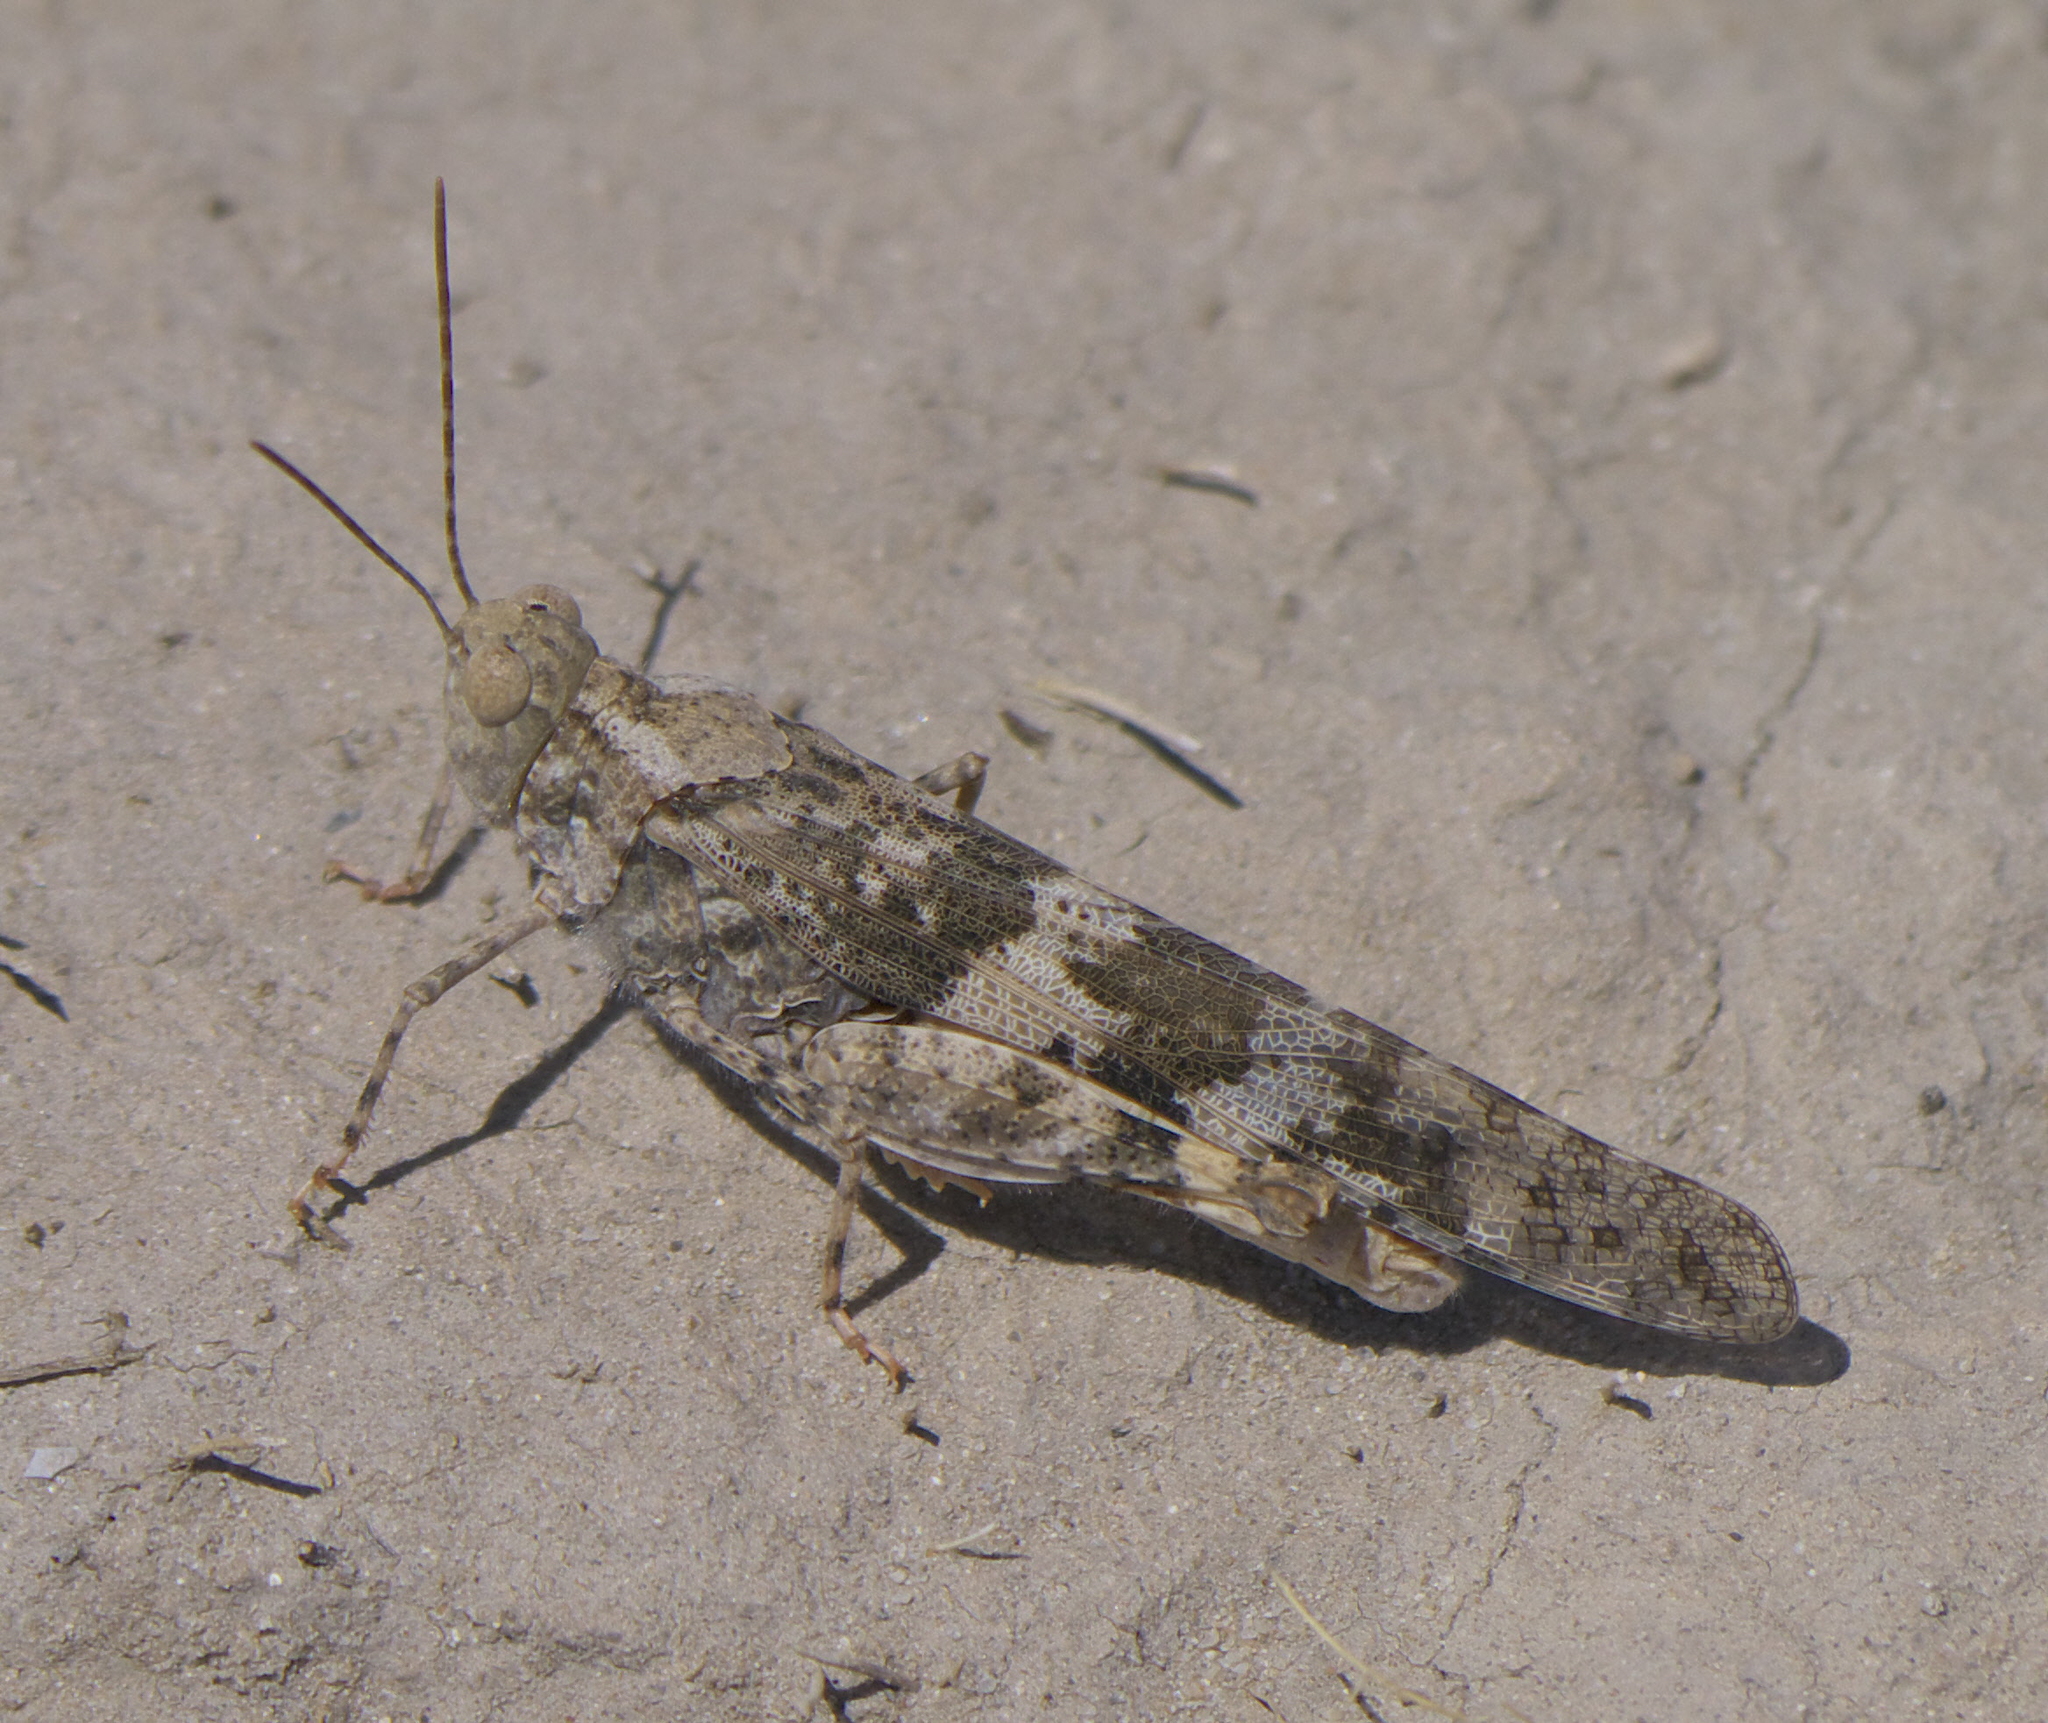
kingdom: Animalia
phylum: Arthropoda
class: Insecta
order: Orthoptera
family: Acrididae
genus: Trimerotropis
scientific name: Trimerotropis pallidipennis
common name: Pallid-winged grasshopper
